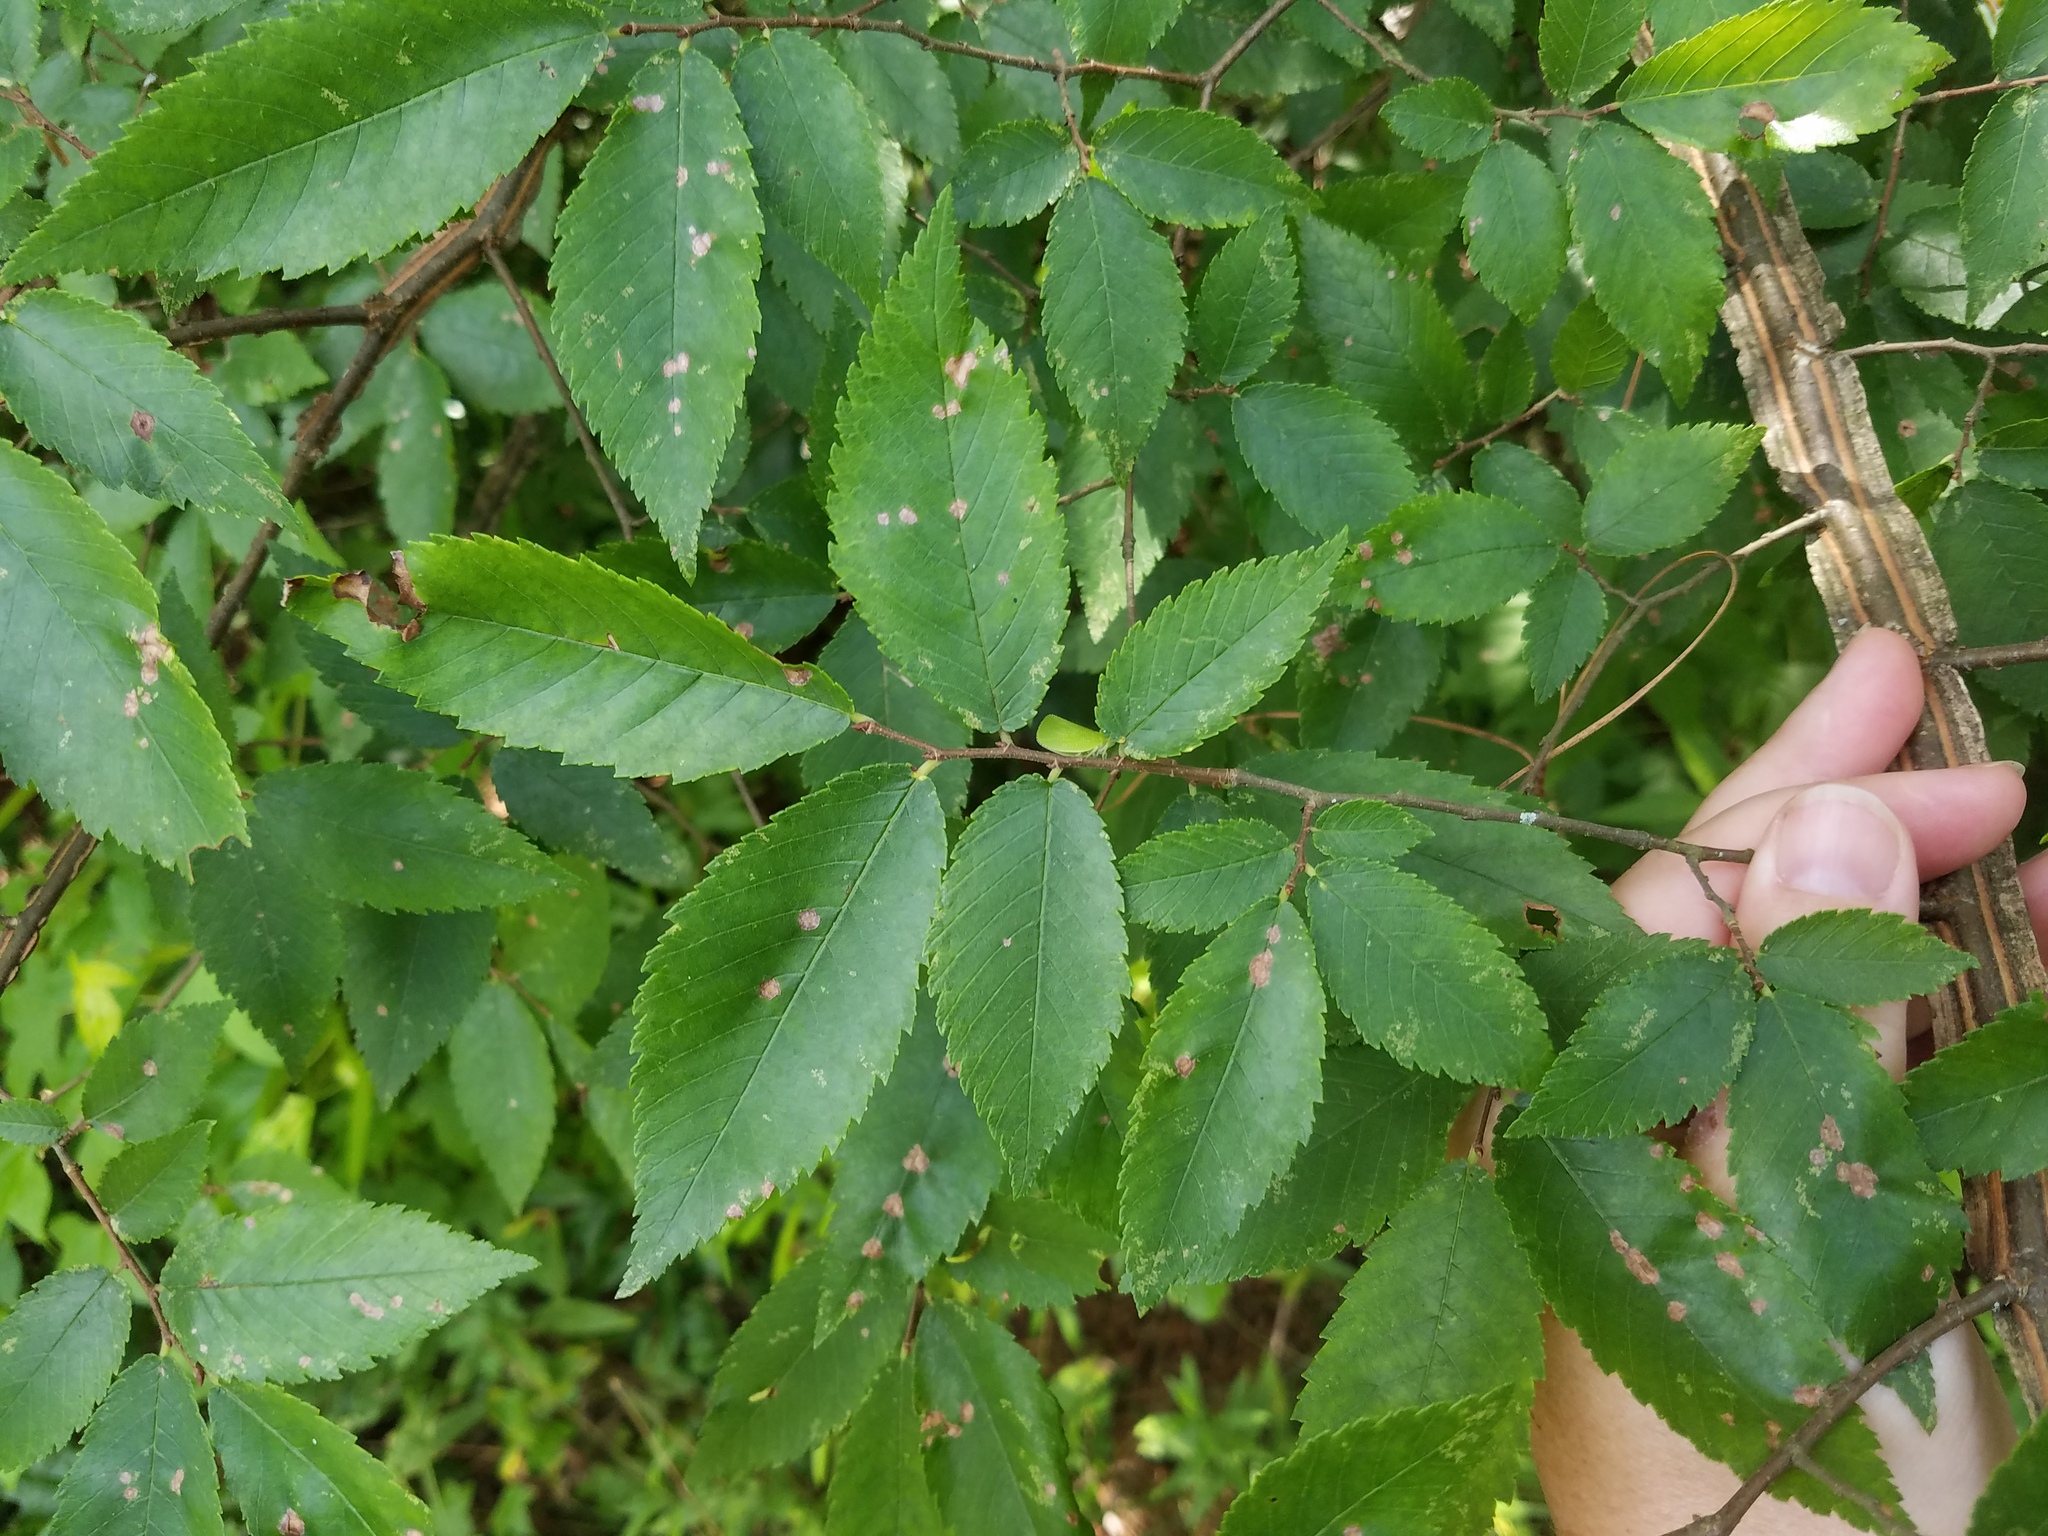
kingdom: Plantae
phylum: Tracheophyta
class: Magnoliopsida
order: Rosales
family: Ulmaceae
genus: Ulmus
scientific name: Ulmus alata
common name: Winged elm
